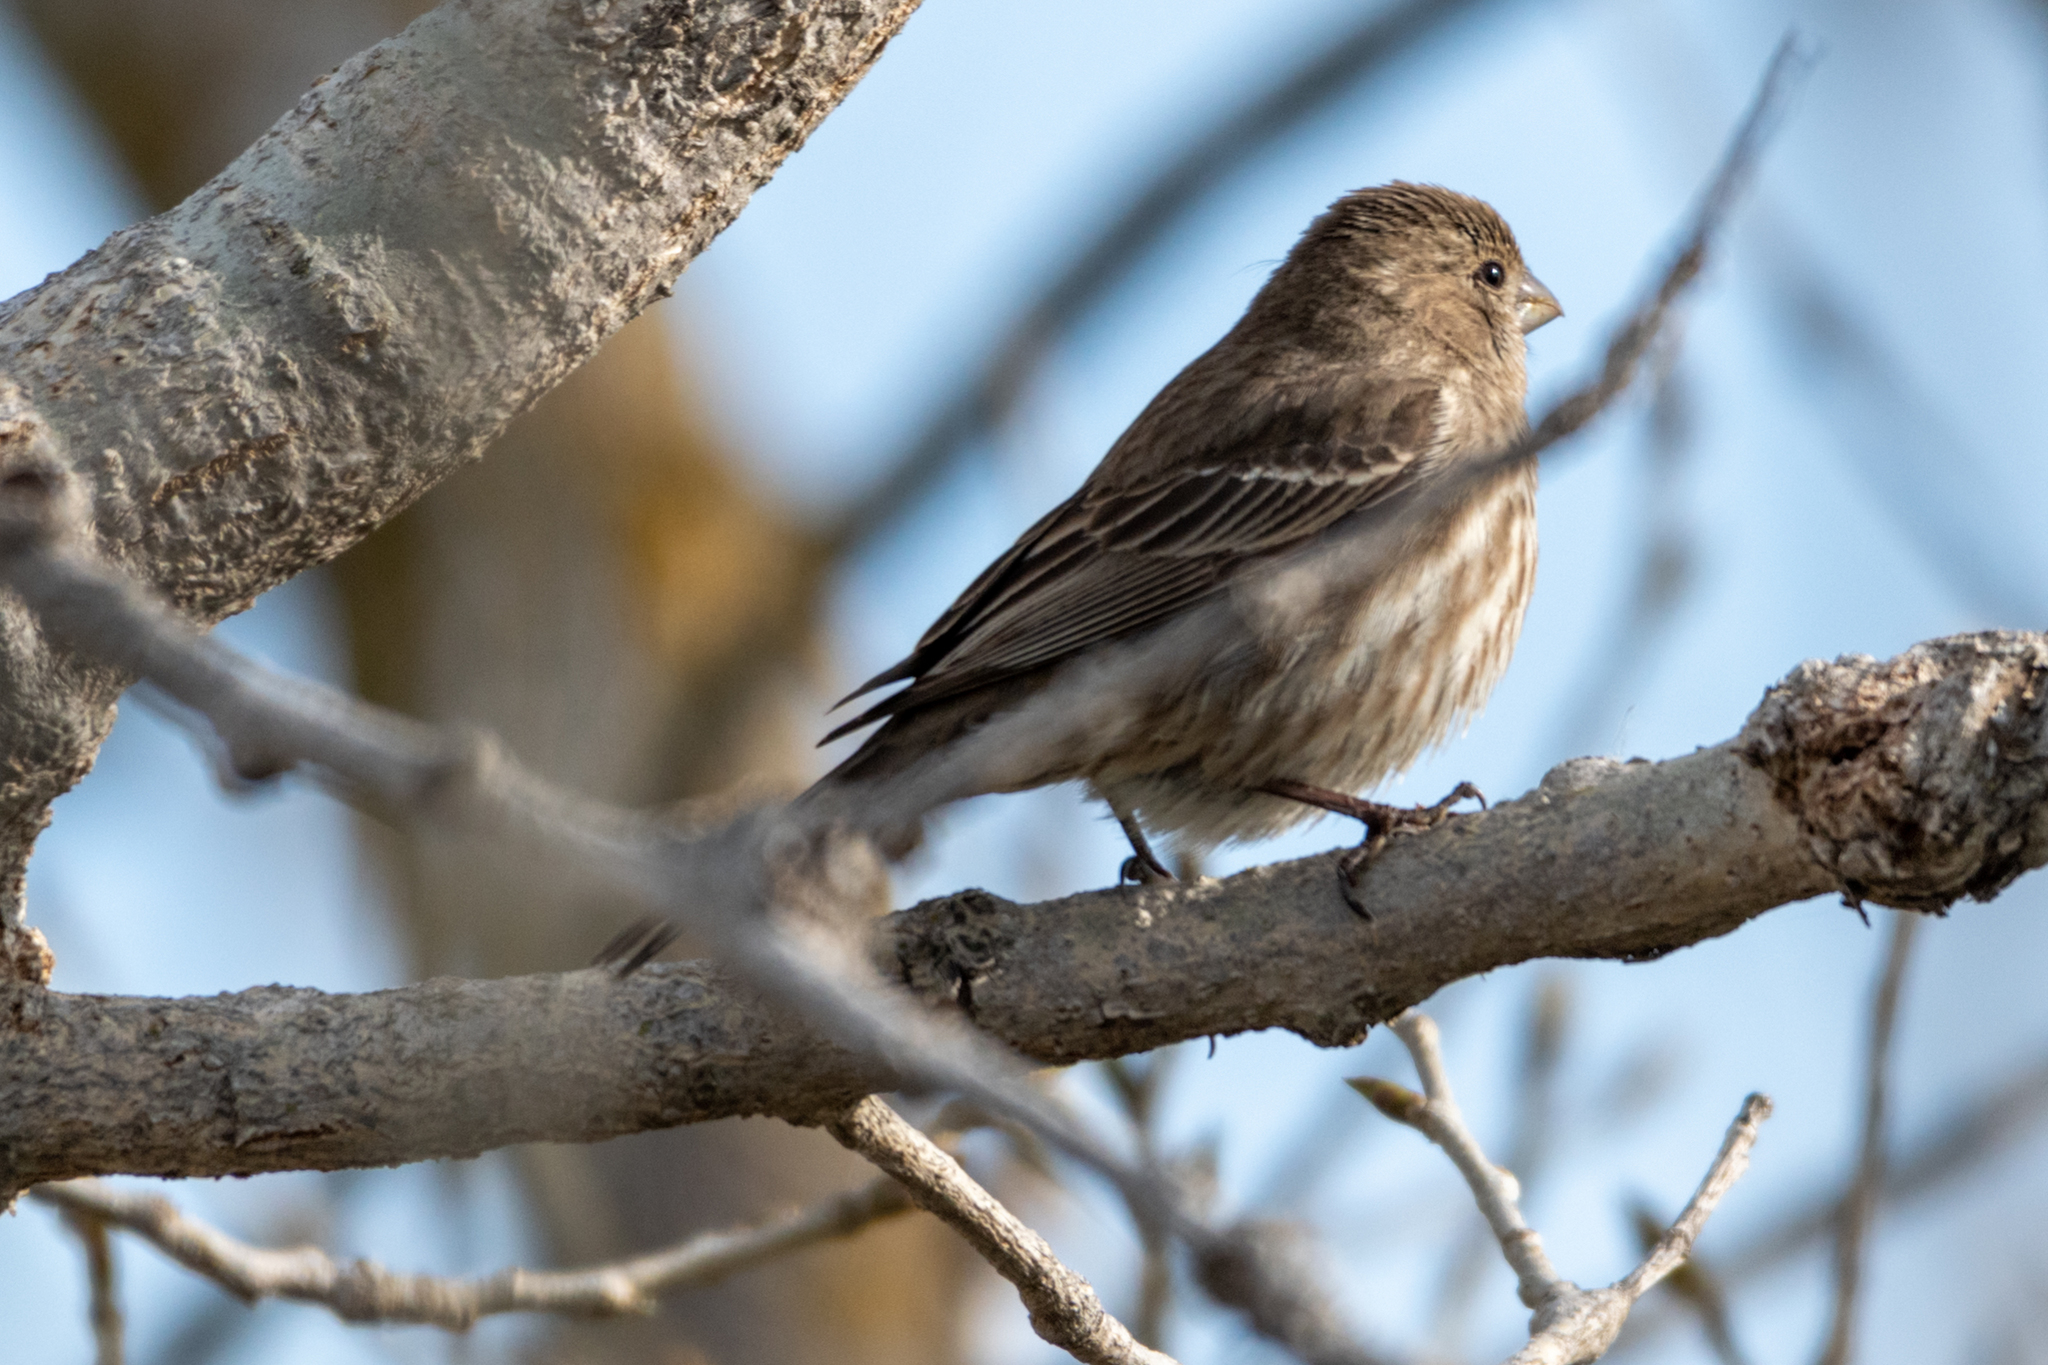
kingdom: Animalia
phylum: Chordata
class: Aves
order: Passeriformes
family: Fringillidae
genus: Haemorhous
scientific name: Haemorhous mexicanus
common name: House finch
